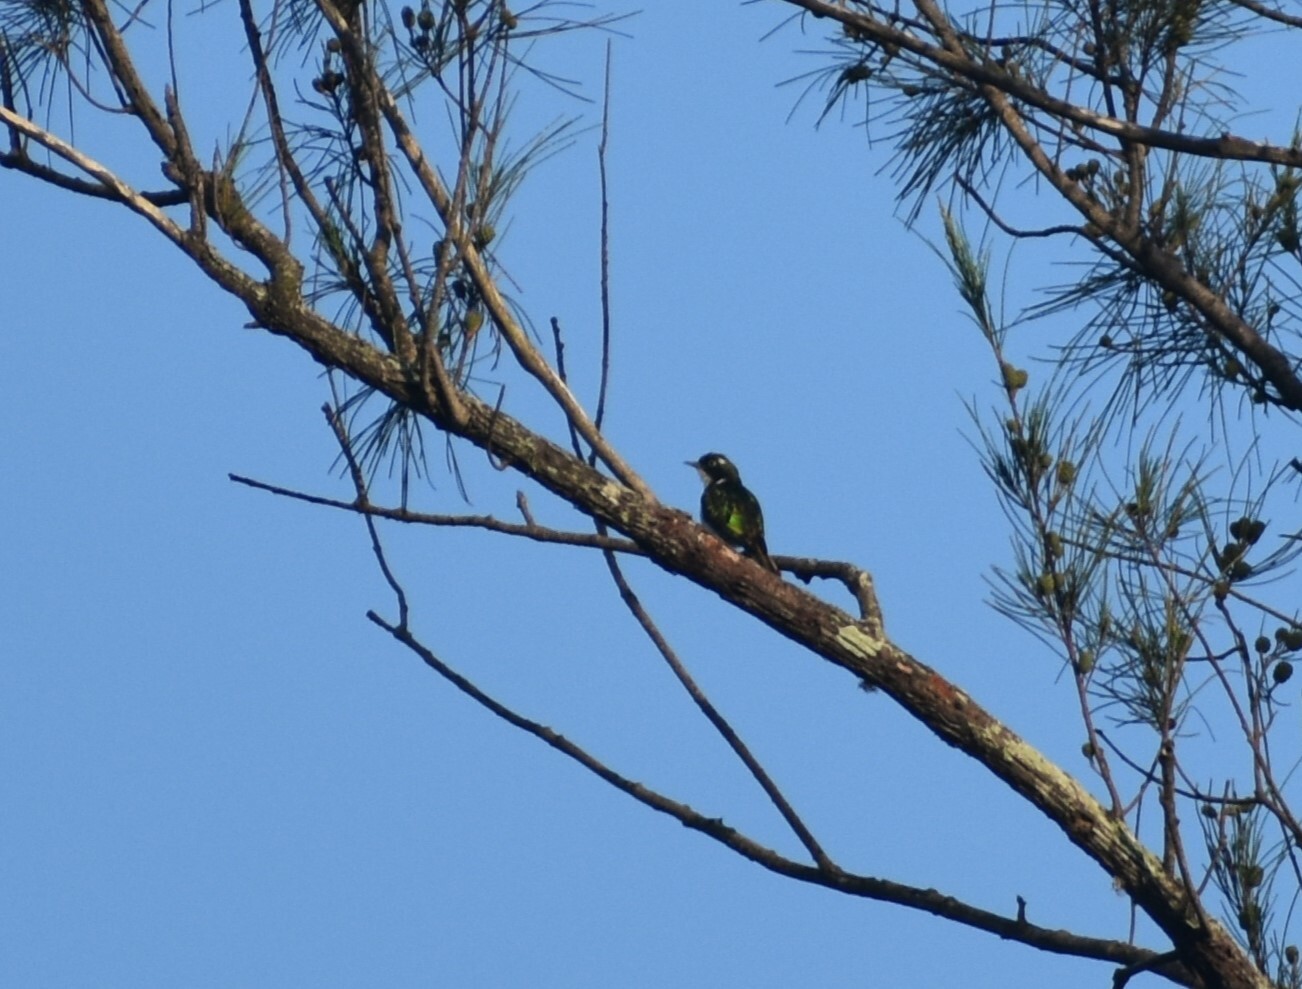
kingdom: Animalia
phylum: Chordata
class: Aves
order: Cuculiformes
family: Cuculidae
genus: Chrysococcyx
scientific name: Chrysococcyx klaas
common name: Klaas's cuckoo
